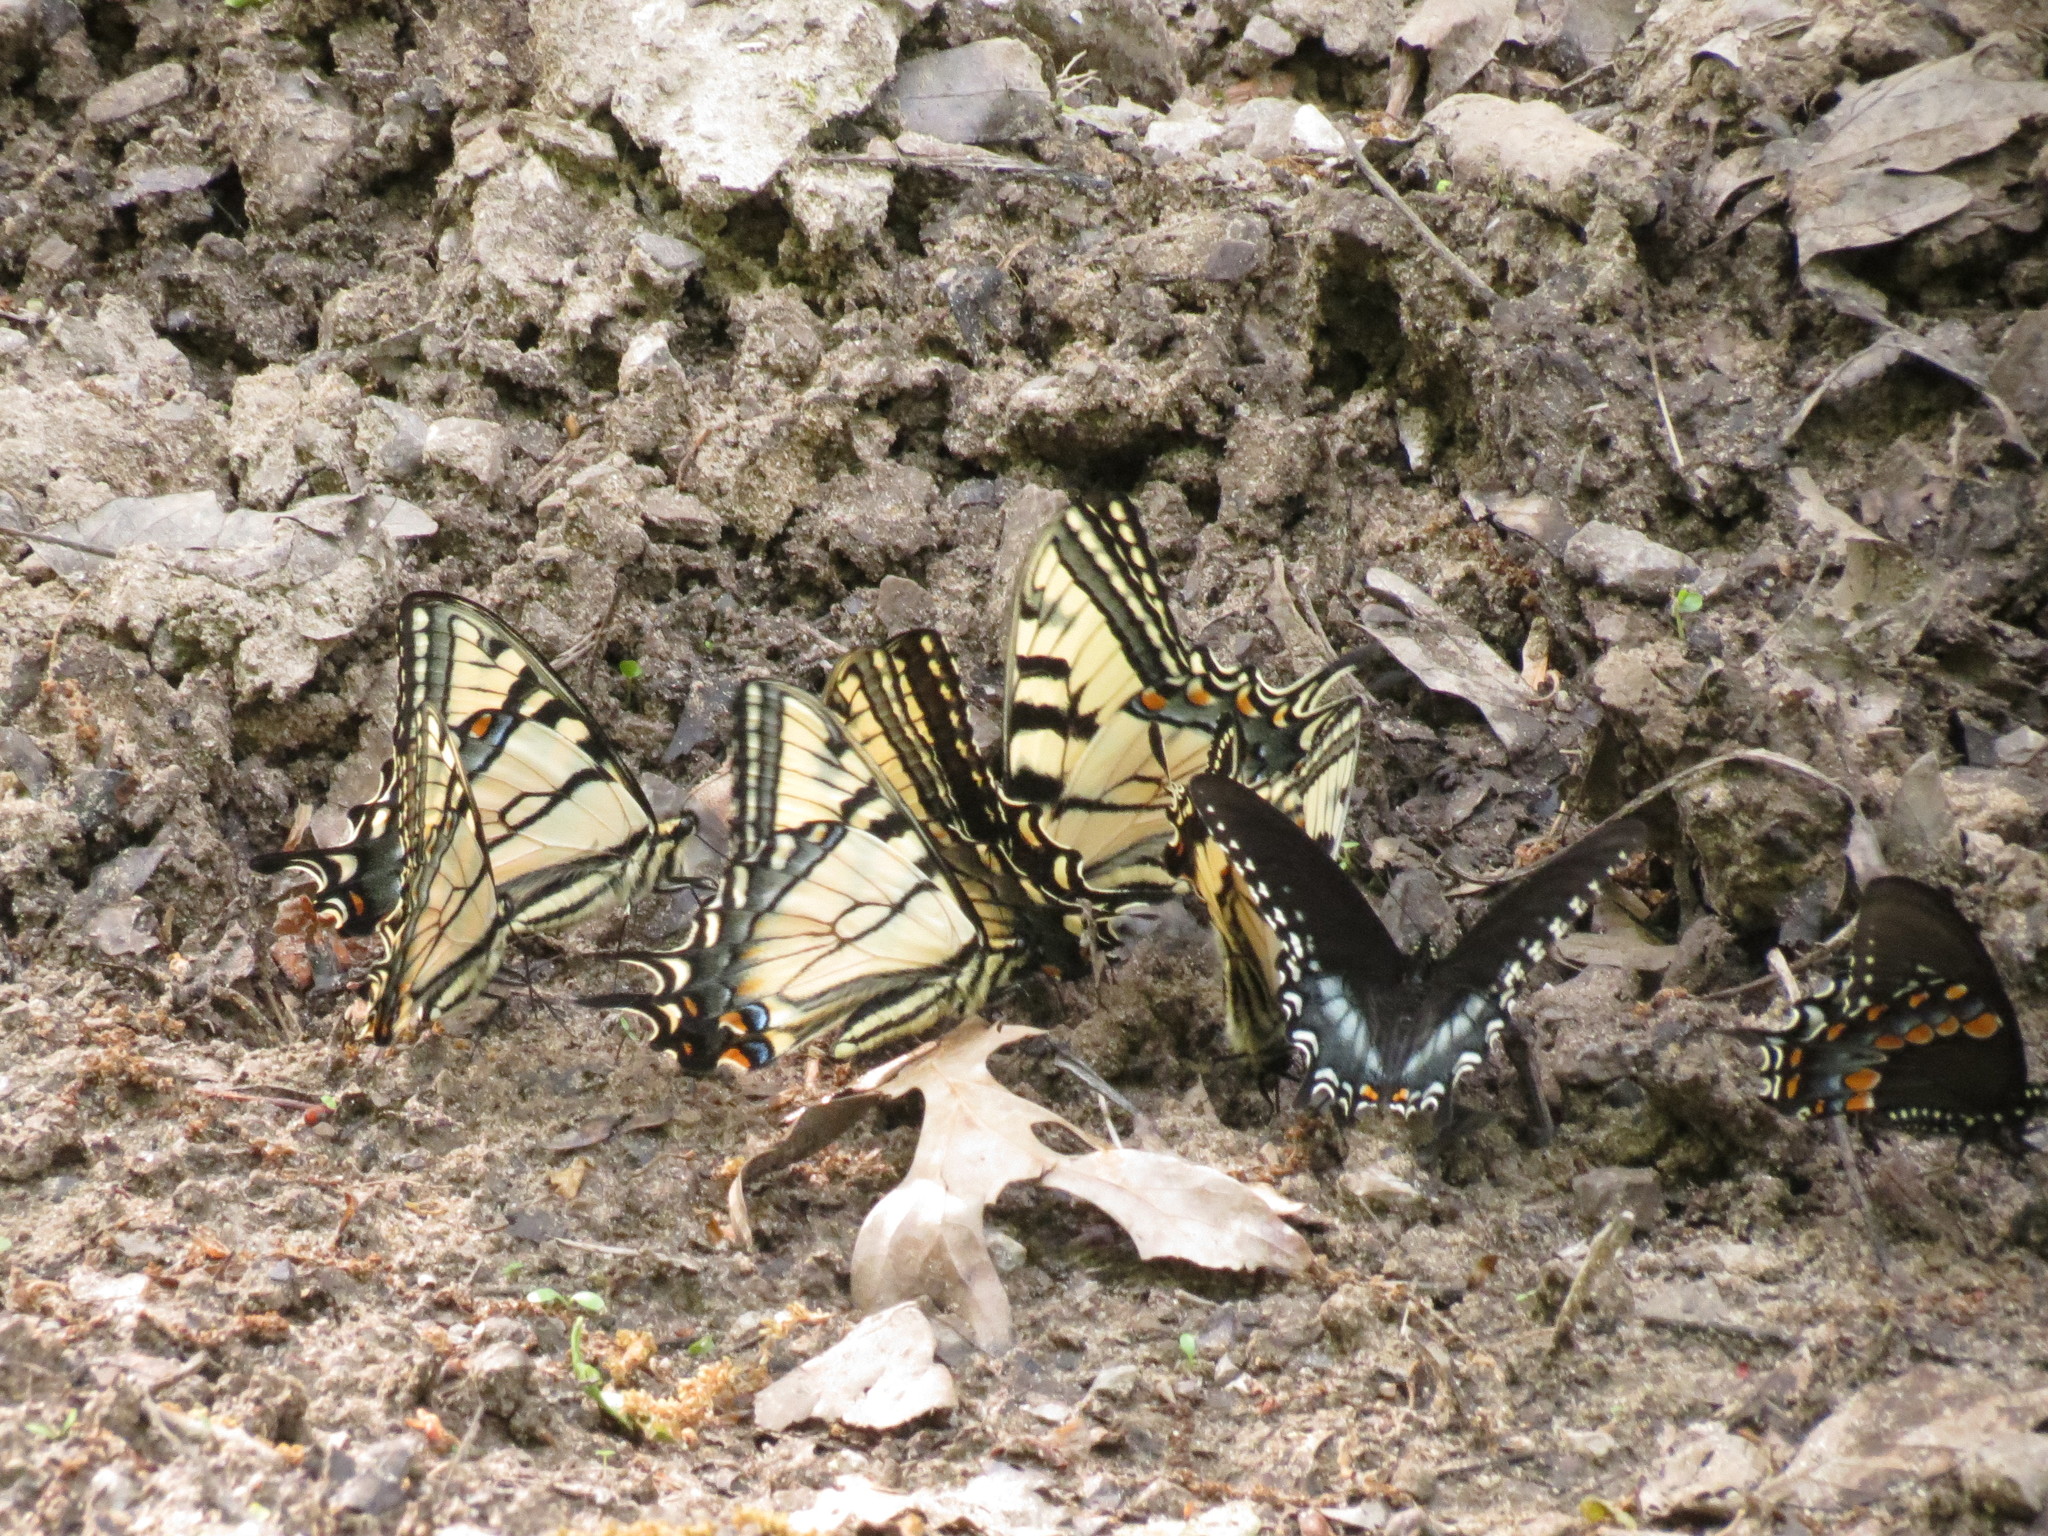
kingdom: Animalia
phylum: Arthropoda
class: Insecta
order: Lepidoptera
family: Papilionidae
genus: Papilio
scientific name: Papilio troilus
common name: Spicebush swallowtail
